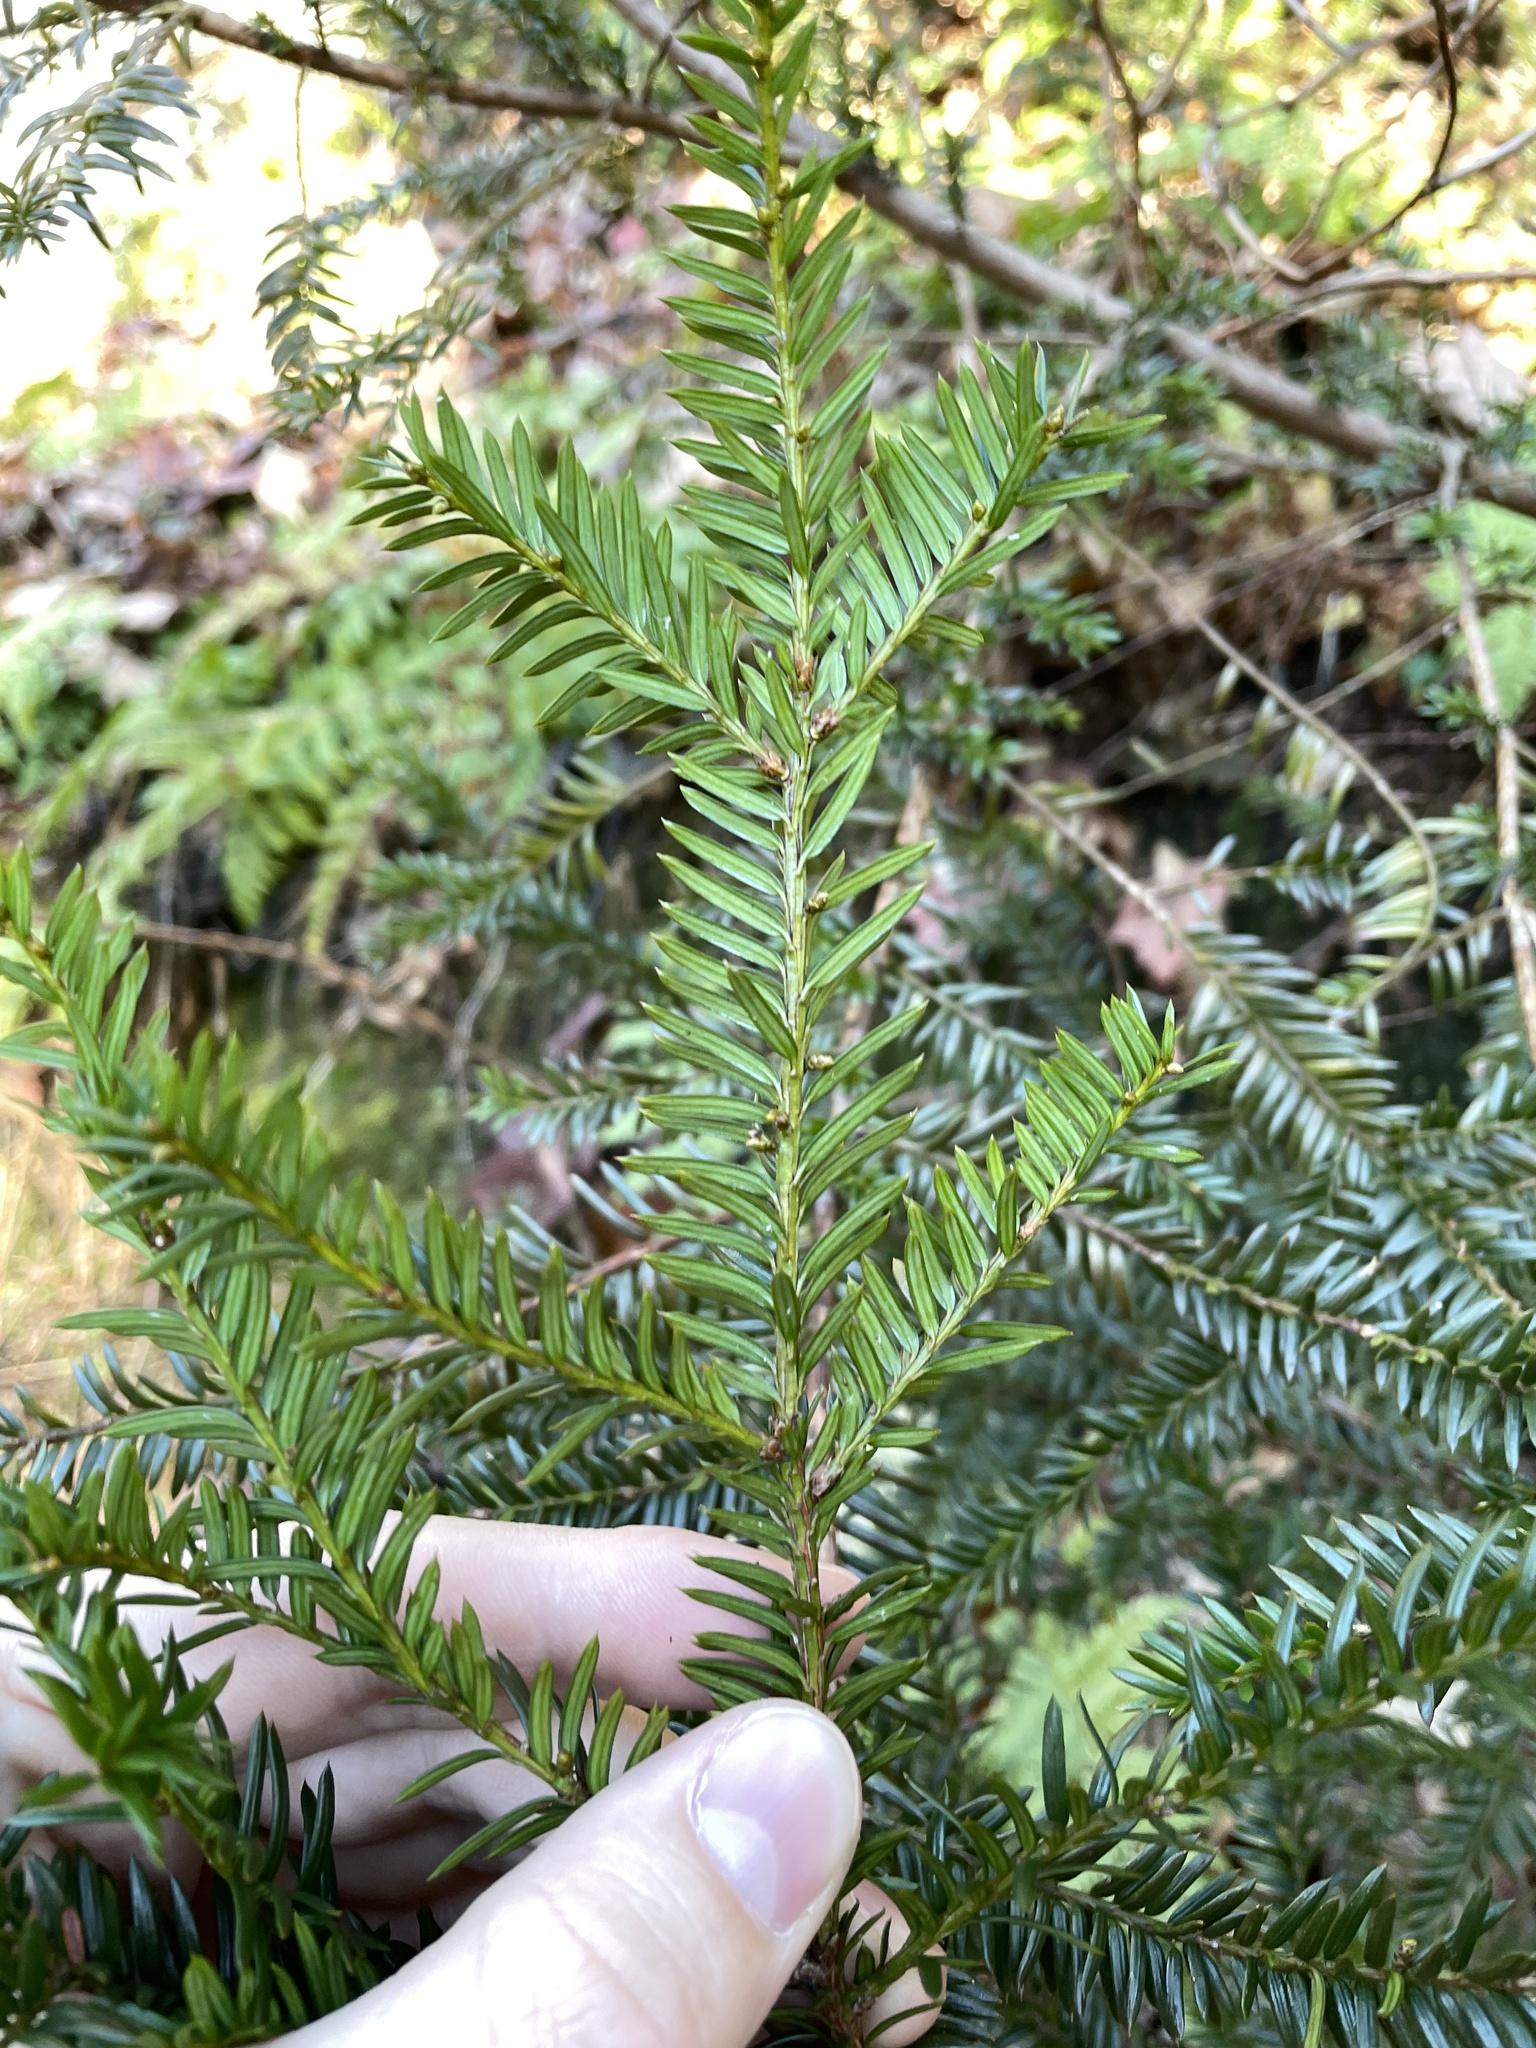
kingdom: Plantae
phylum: Tracheophyta
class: Pinopsida
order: Pinales
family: Taxaceae
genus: Taxus
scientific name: Taxus canadensis
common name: American yew
